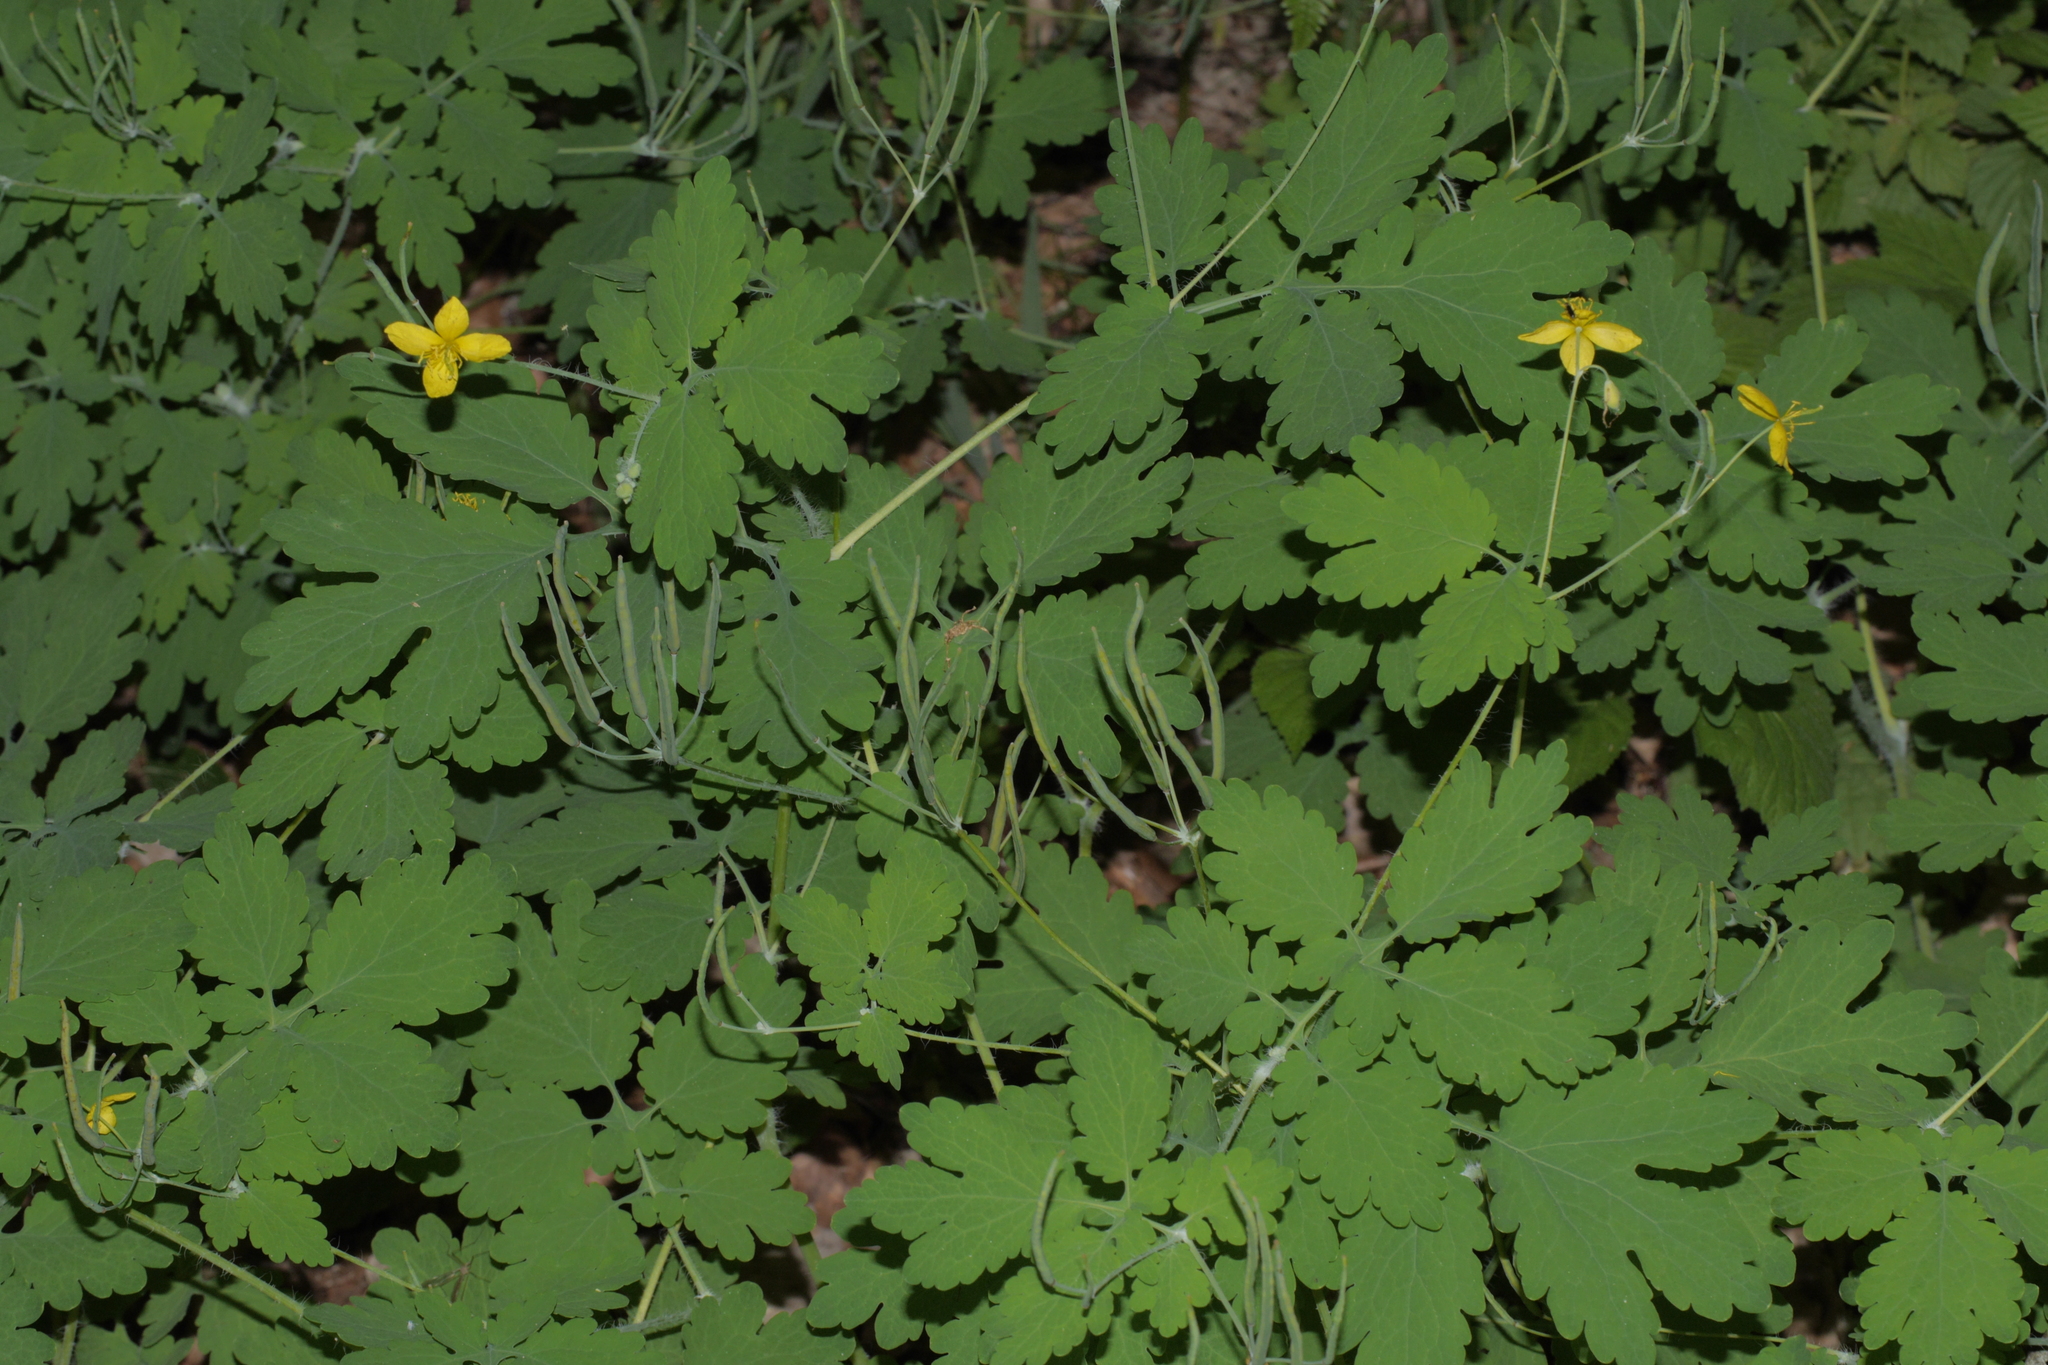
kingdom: Plantae
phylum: Tracheophyta
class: Magnoliopsida
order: Ranunculales
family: Papaveraceae
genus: Chelidonium
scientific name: Chelidonium majus
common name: Greater celandine
